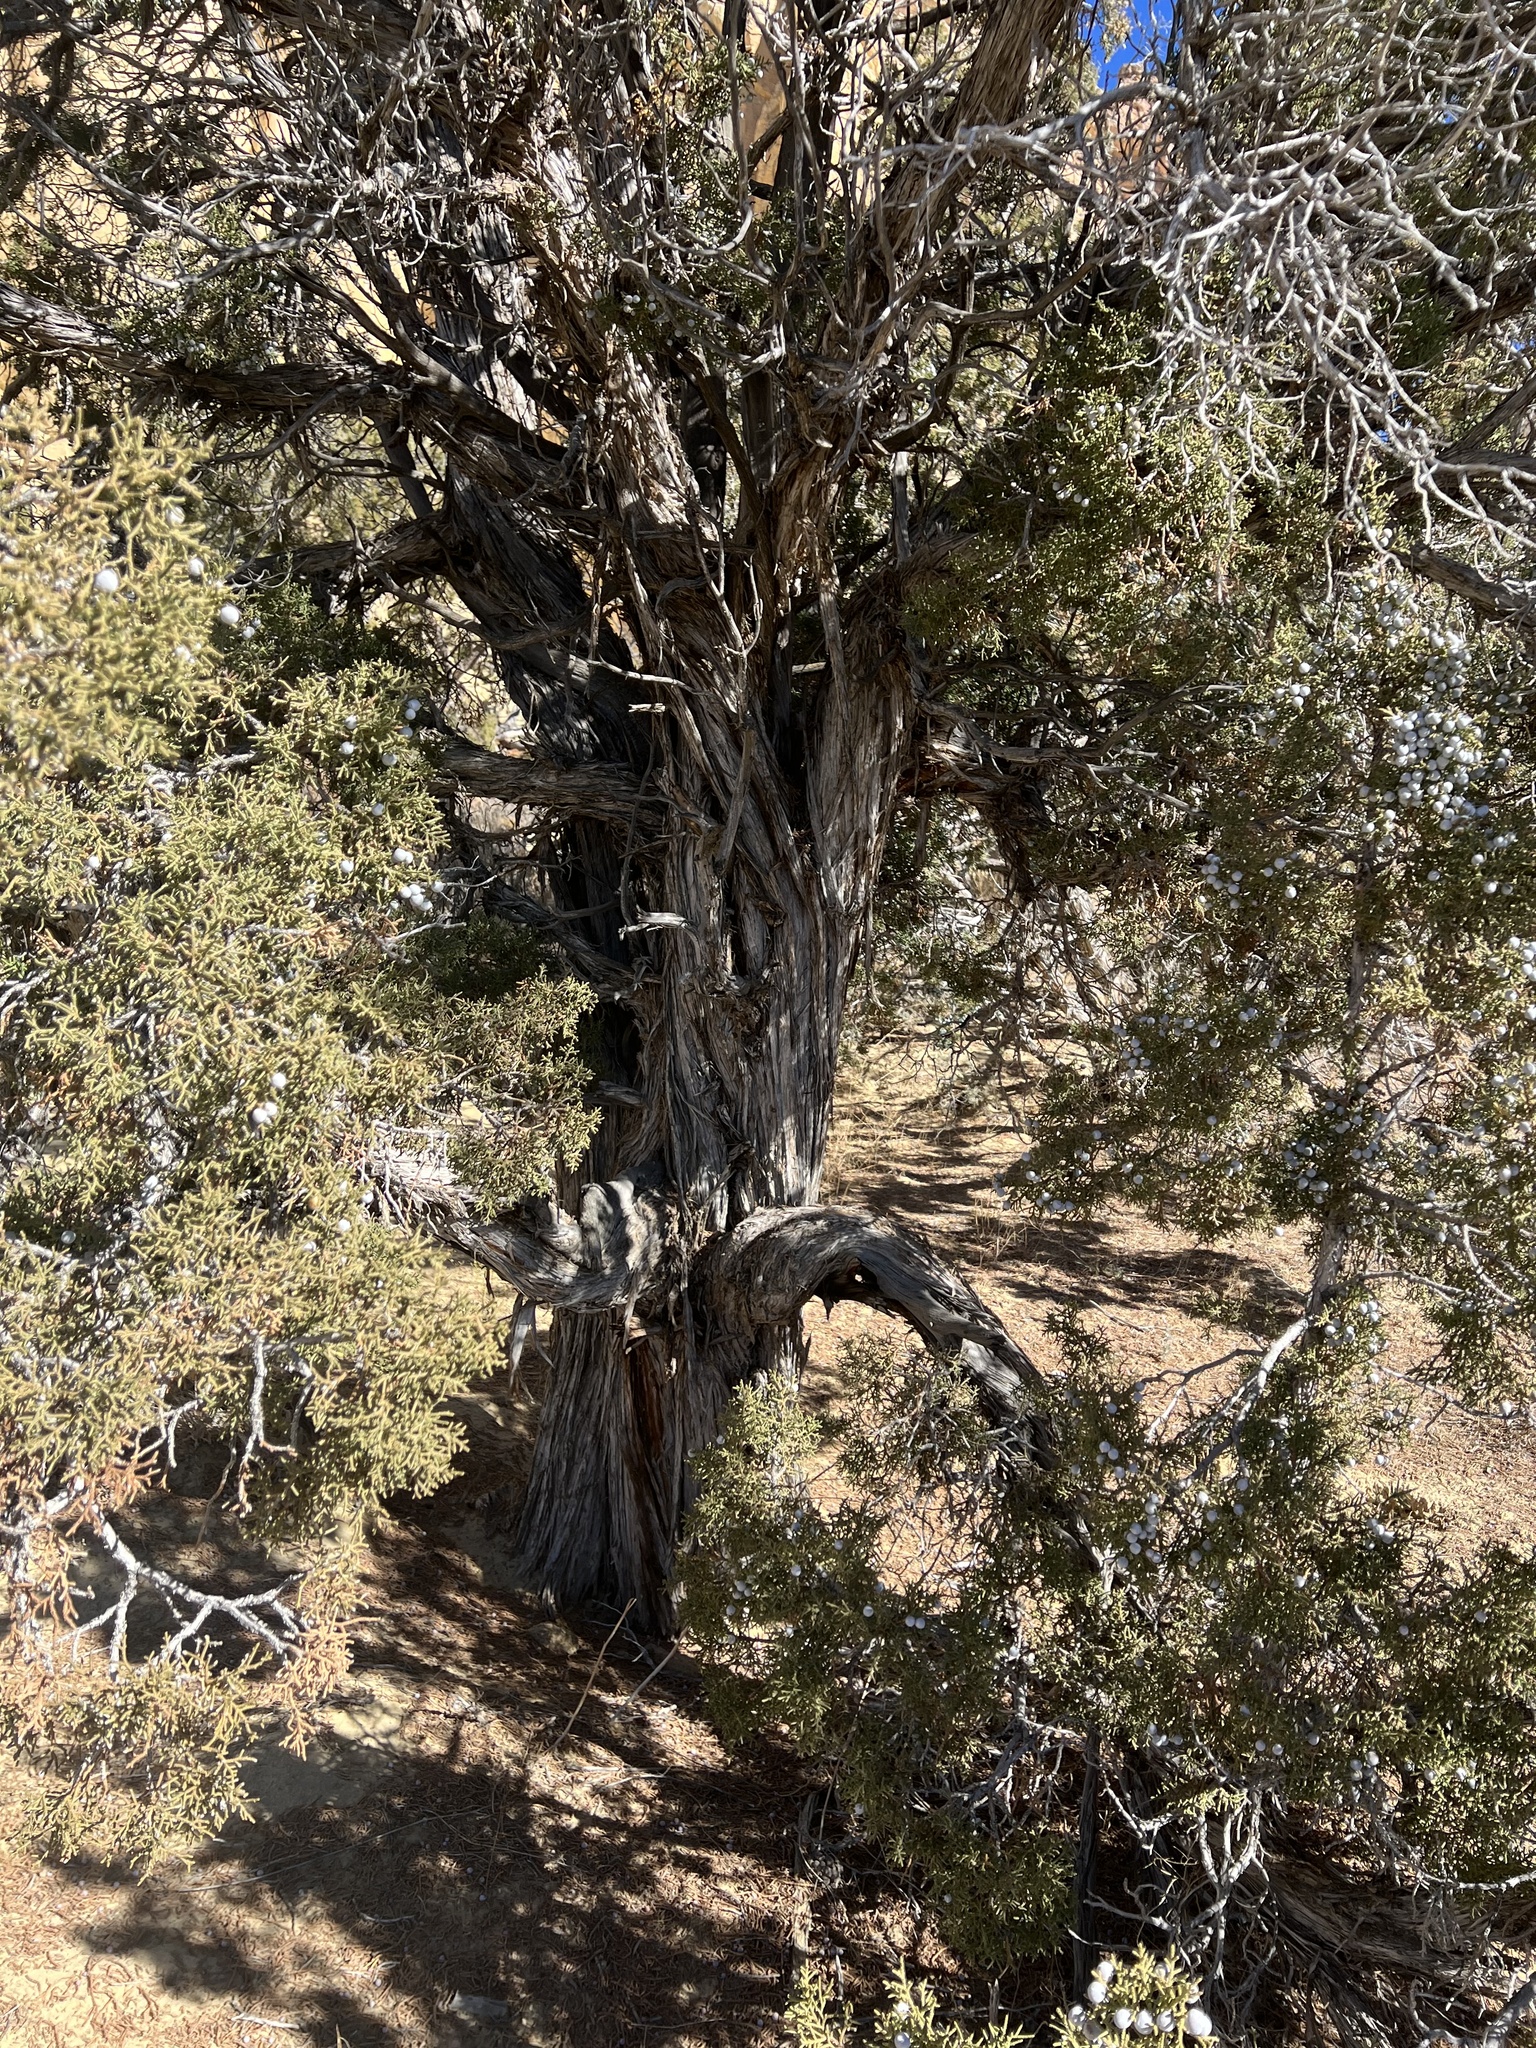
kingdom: Plantae
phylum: Tracheophyta
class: Pinopsida
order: Pinales
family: Cupressaceae
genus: Juniperus
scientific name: Juniperus osteosperma
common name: Utah juniper
